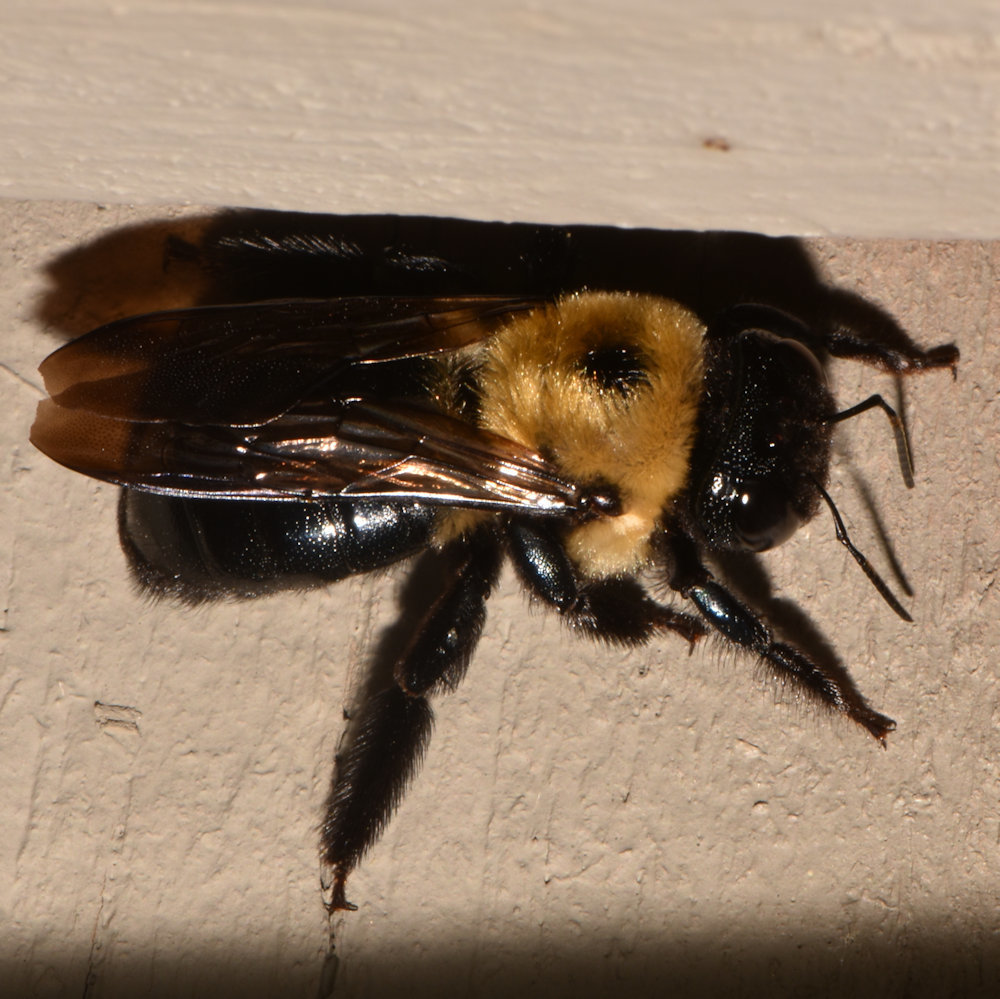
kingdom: Animalia
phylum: Arthropoda
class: Insecta
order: Hymenoptera
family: Apidae
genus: Xylocopa
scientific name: Xylocopa virginica
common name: Carpenter bee
